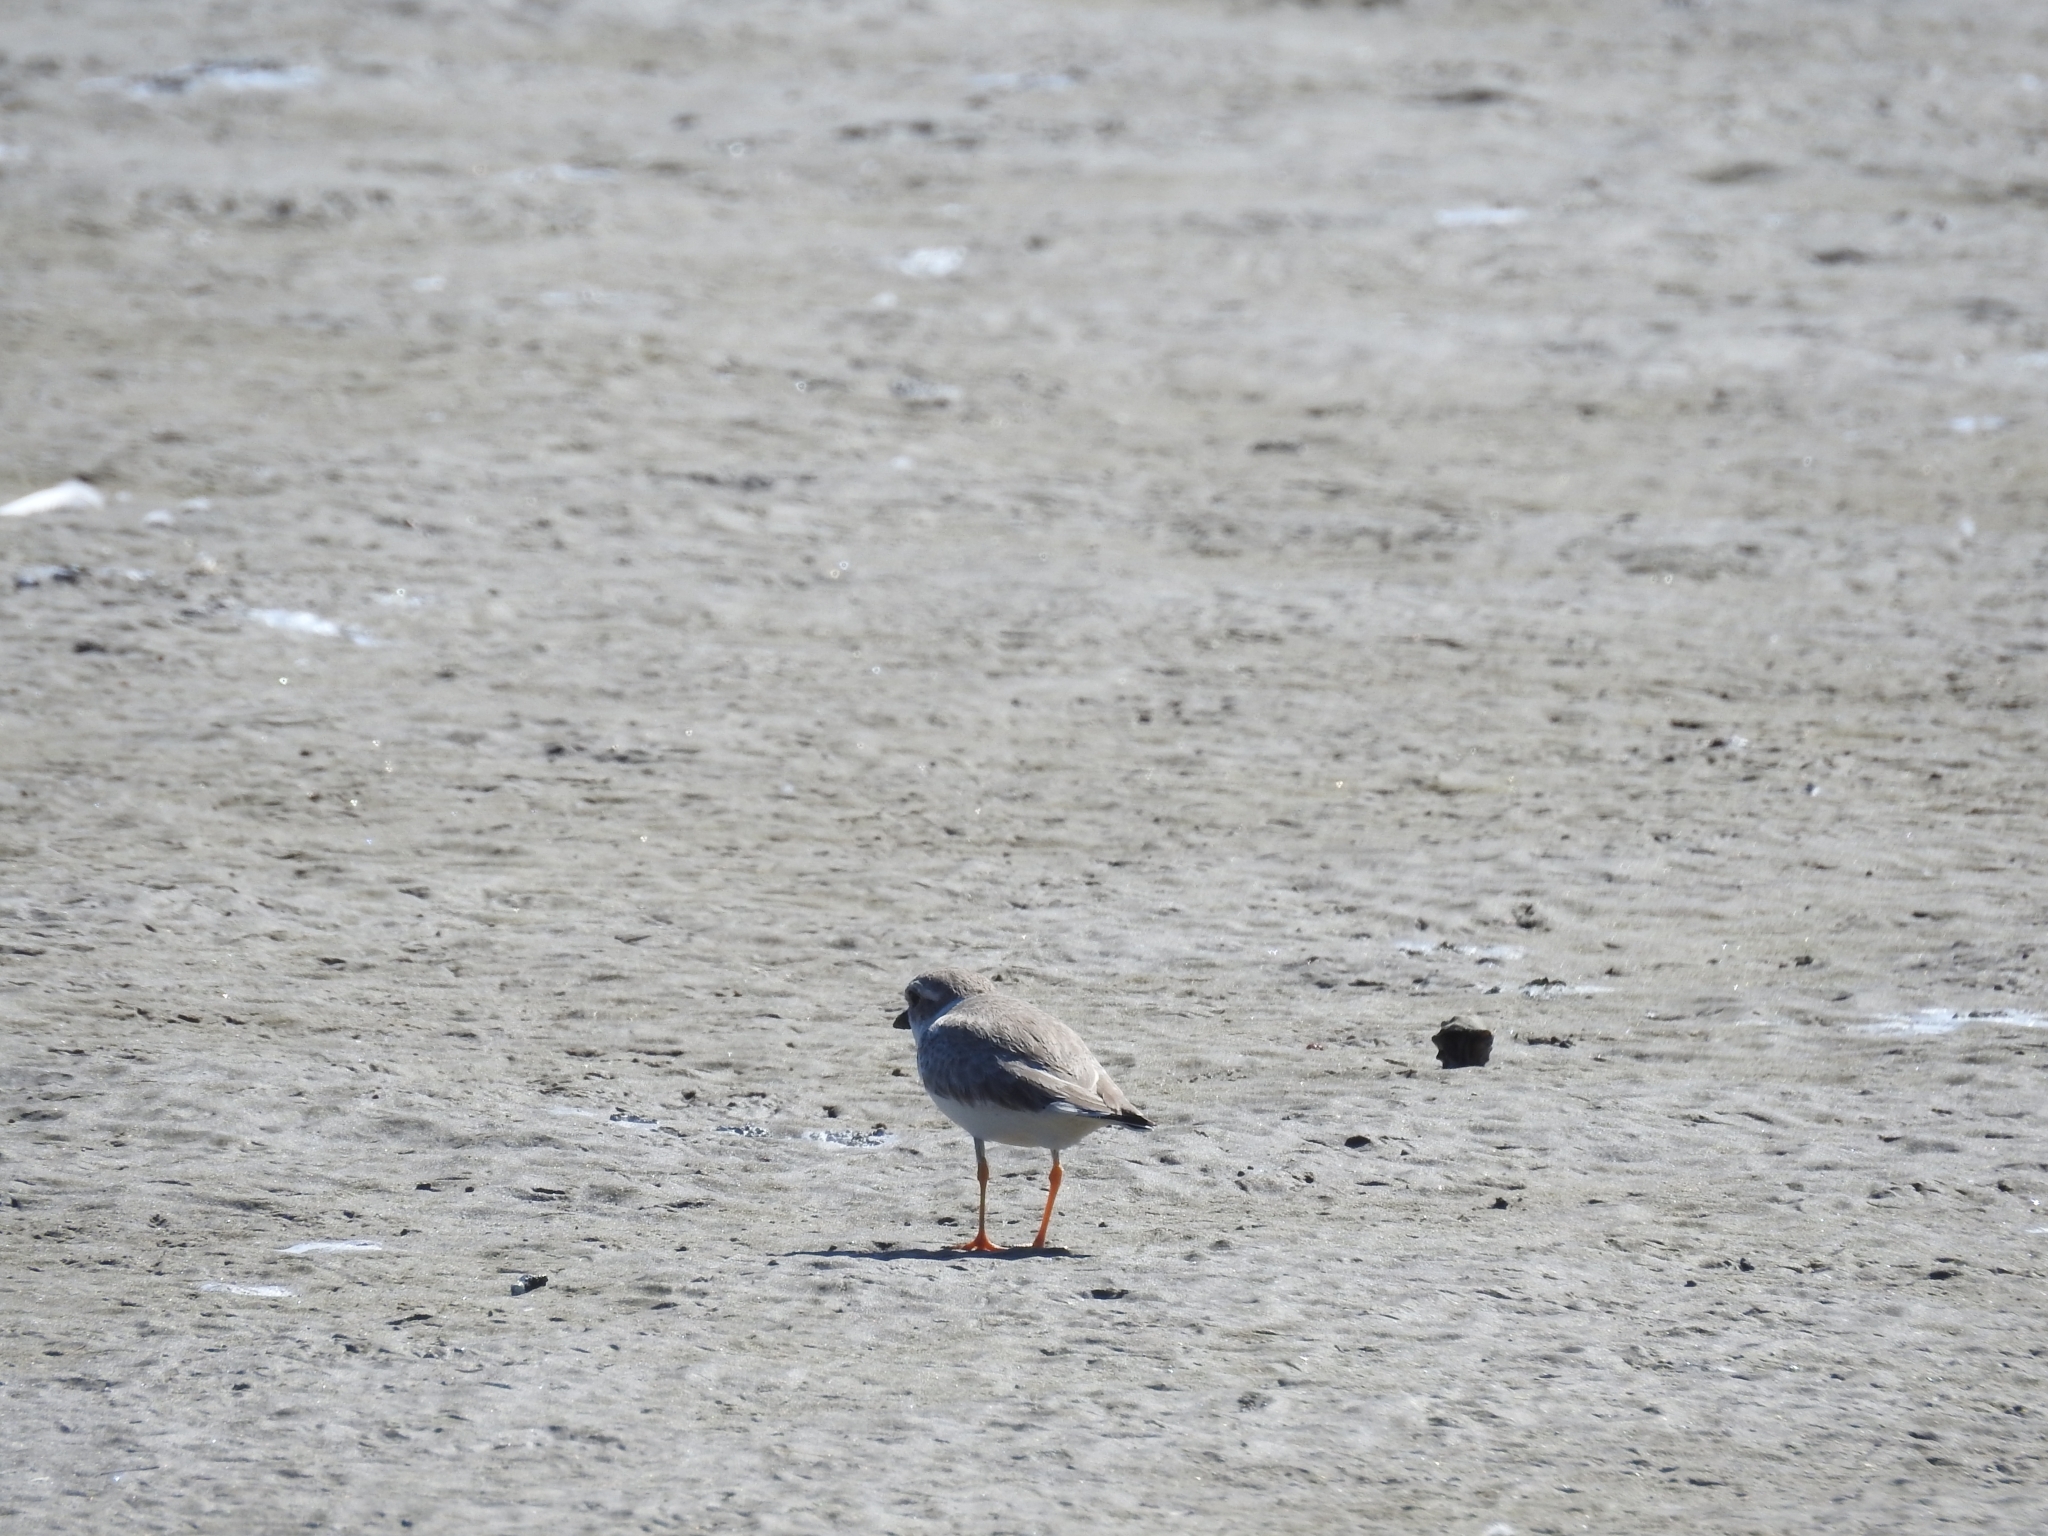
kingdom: Animalia
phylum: Chordata
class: Aves
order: Charadriiformes
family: Charadriidae
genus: Charadrius
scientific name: Charadrius melodus
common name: Piping plover
